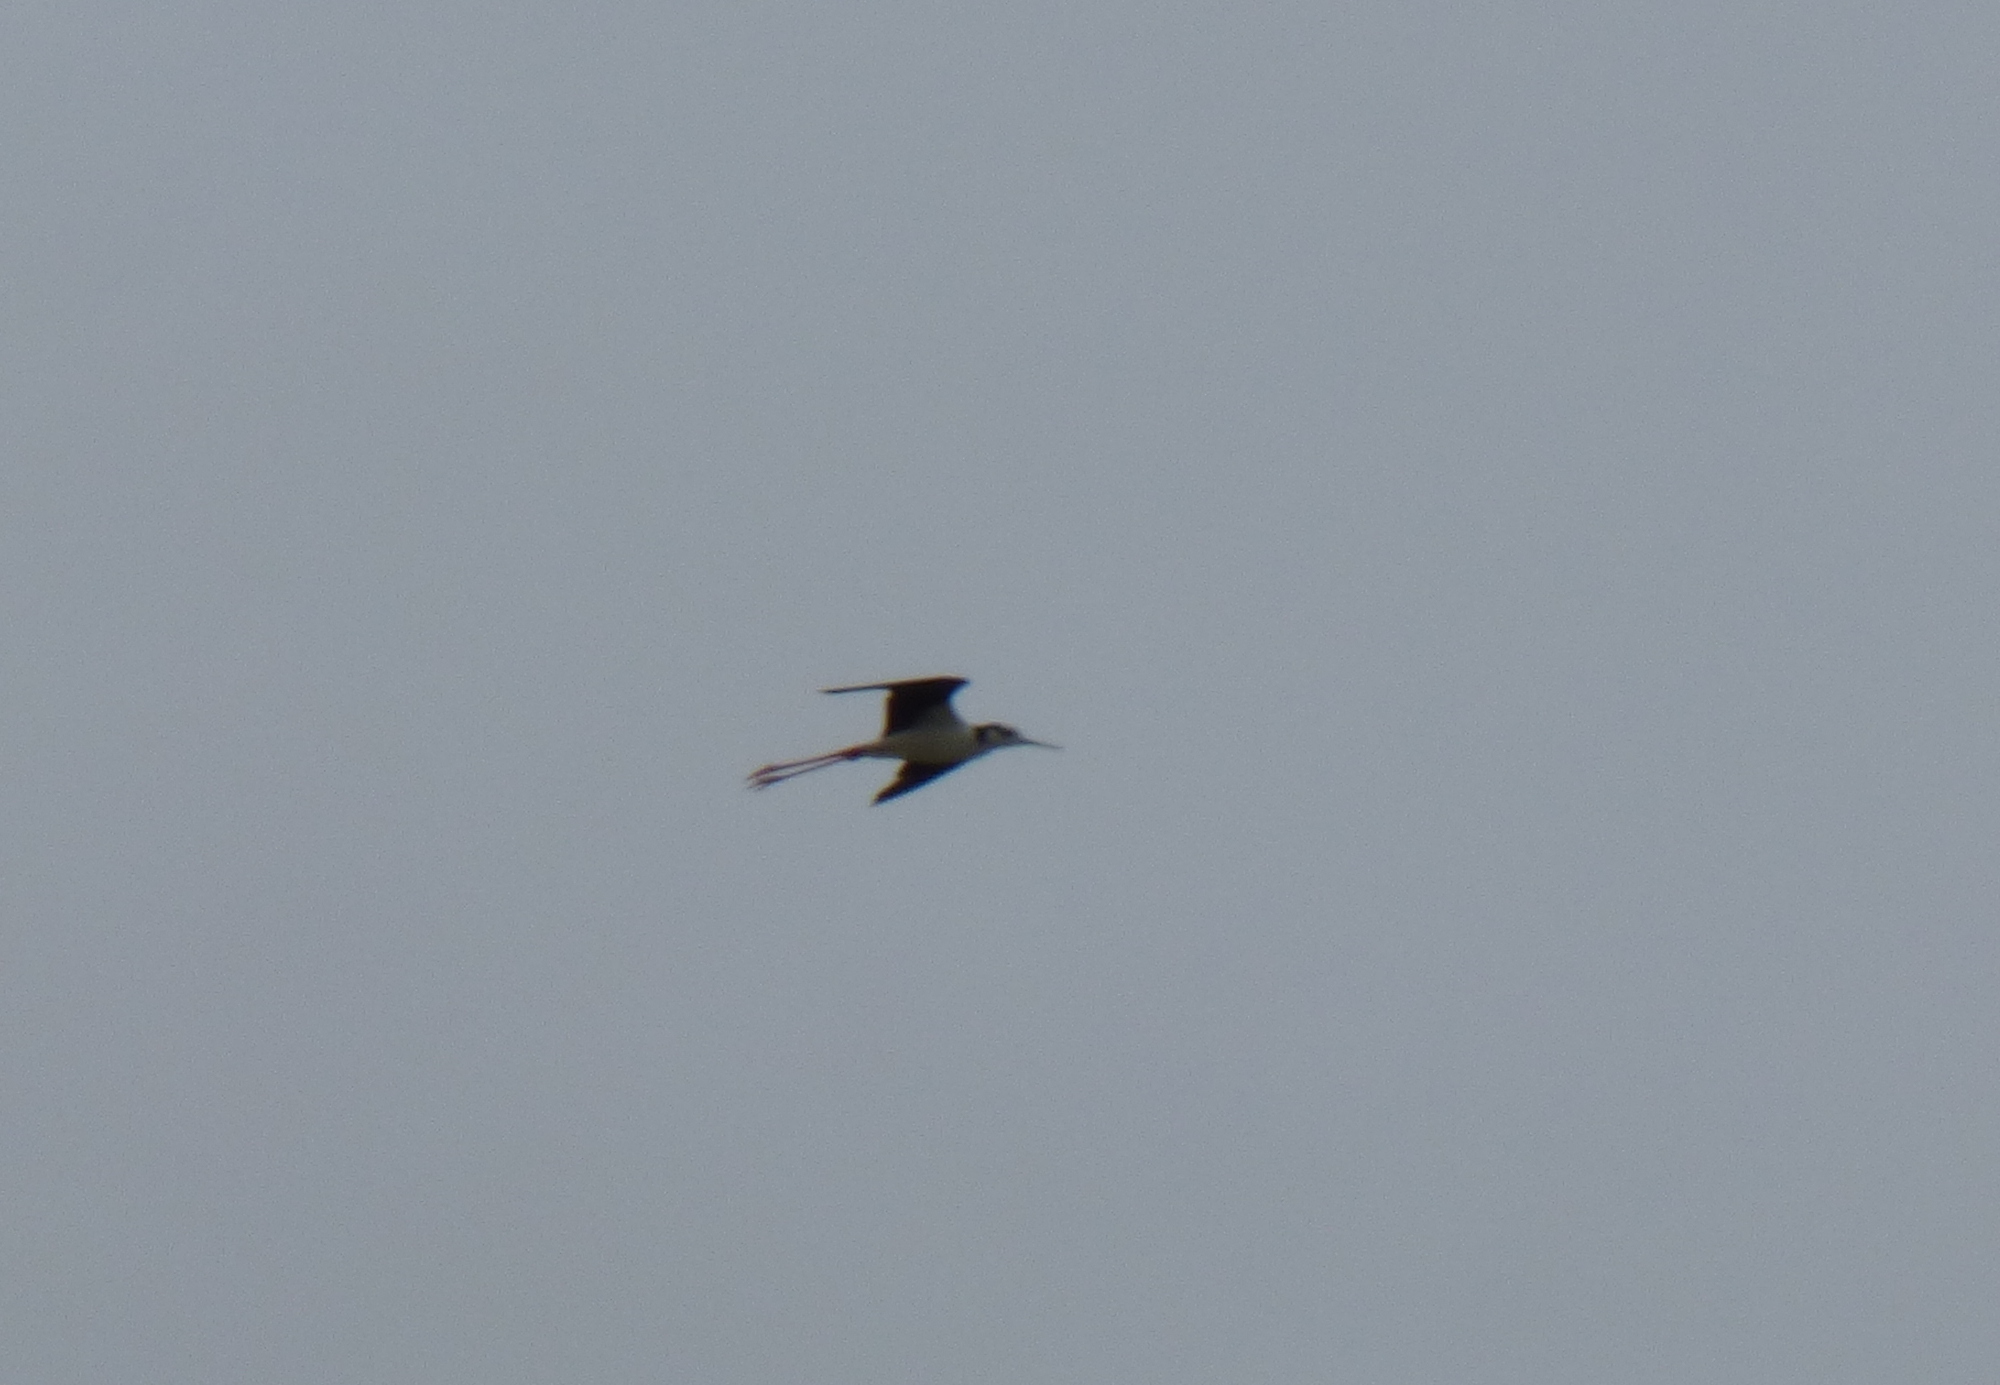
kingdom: Animalia
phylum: Chordata
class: Aves
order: Charadriiformes
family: Recurvirostridae
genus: Himantopus
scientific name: Himantopus mexicanus
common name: Black-necked stilt
